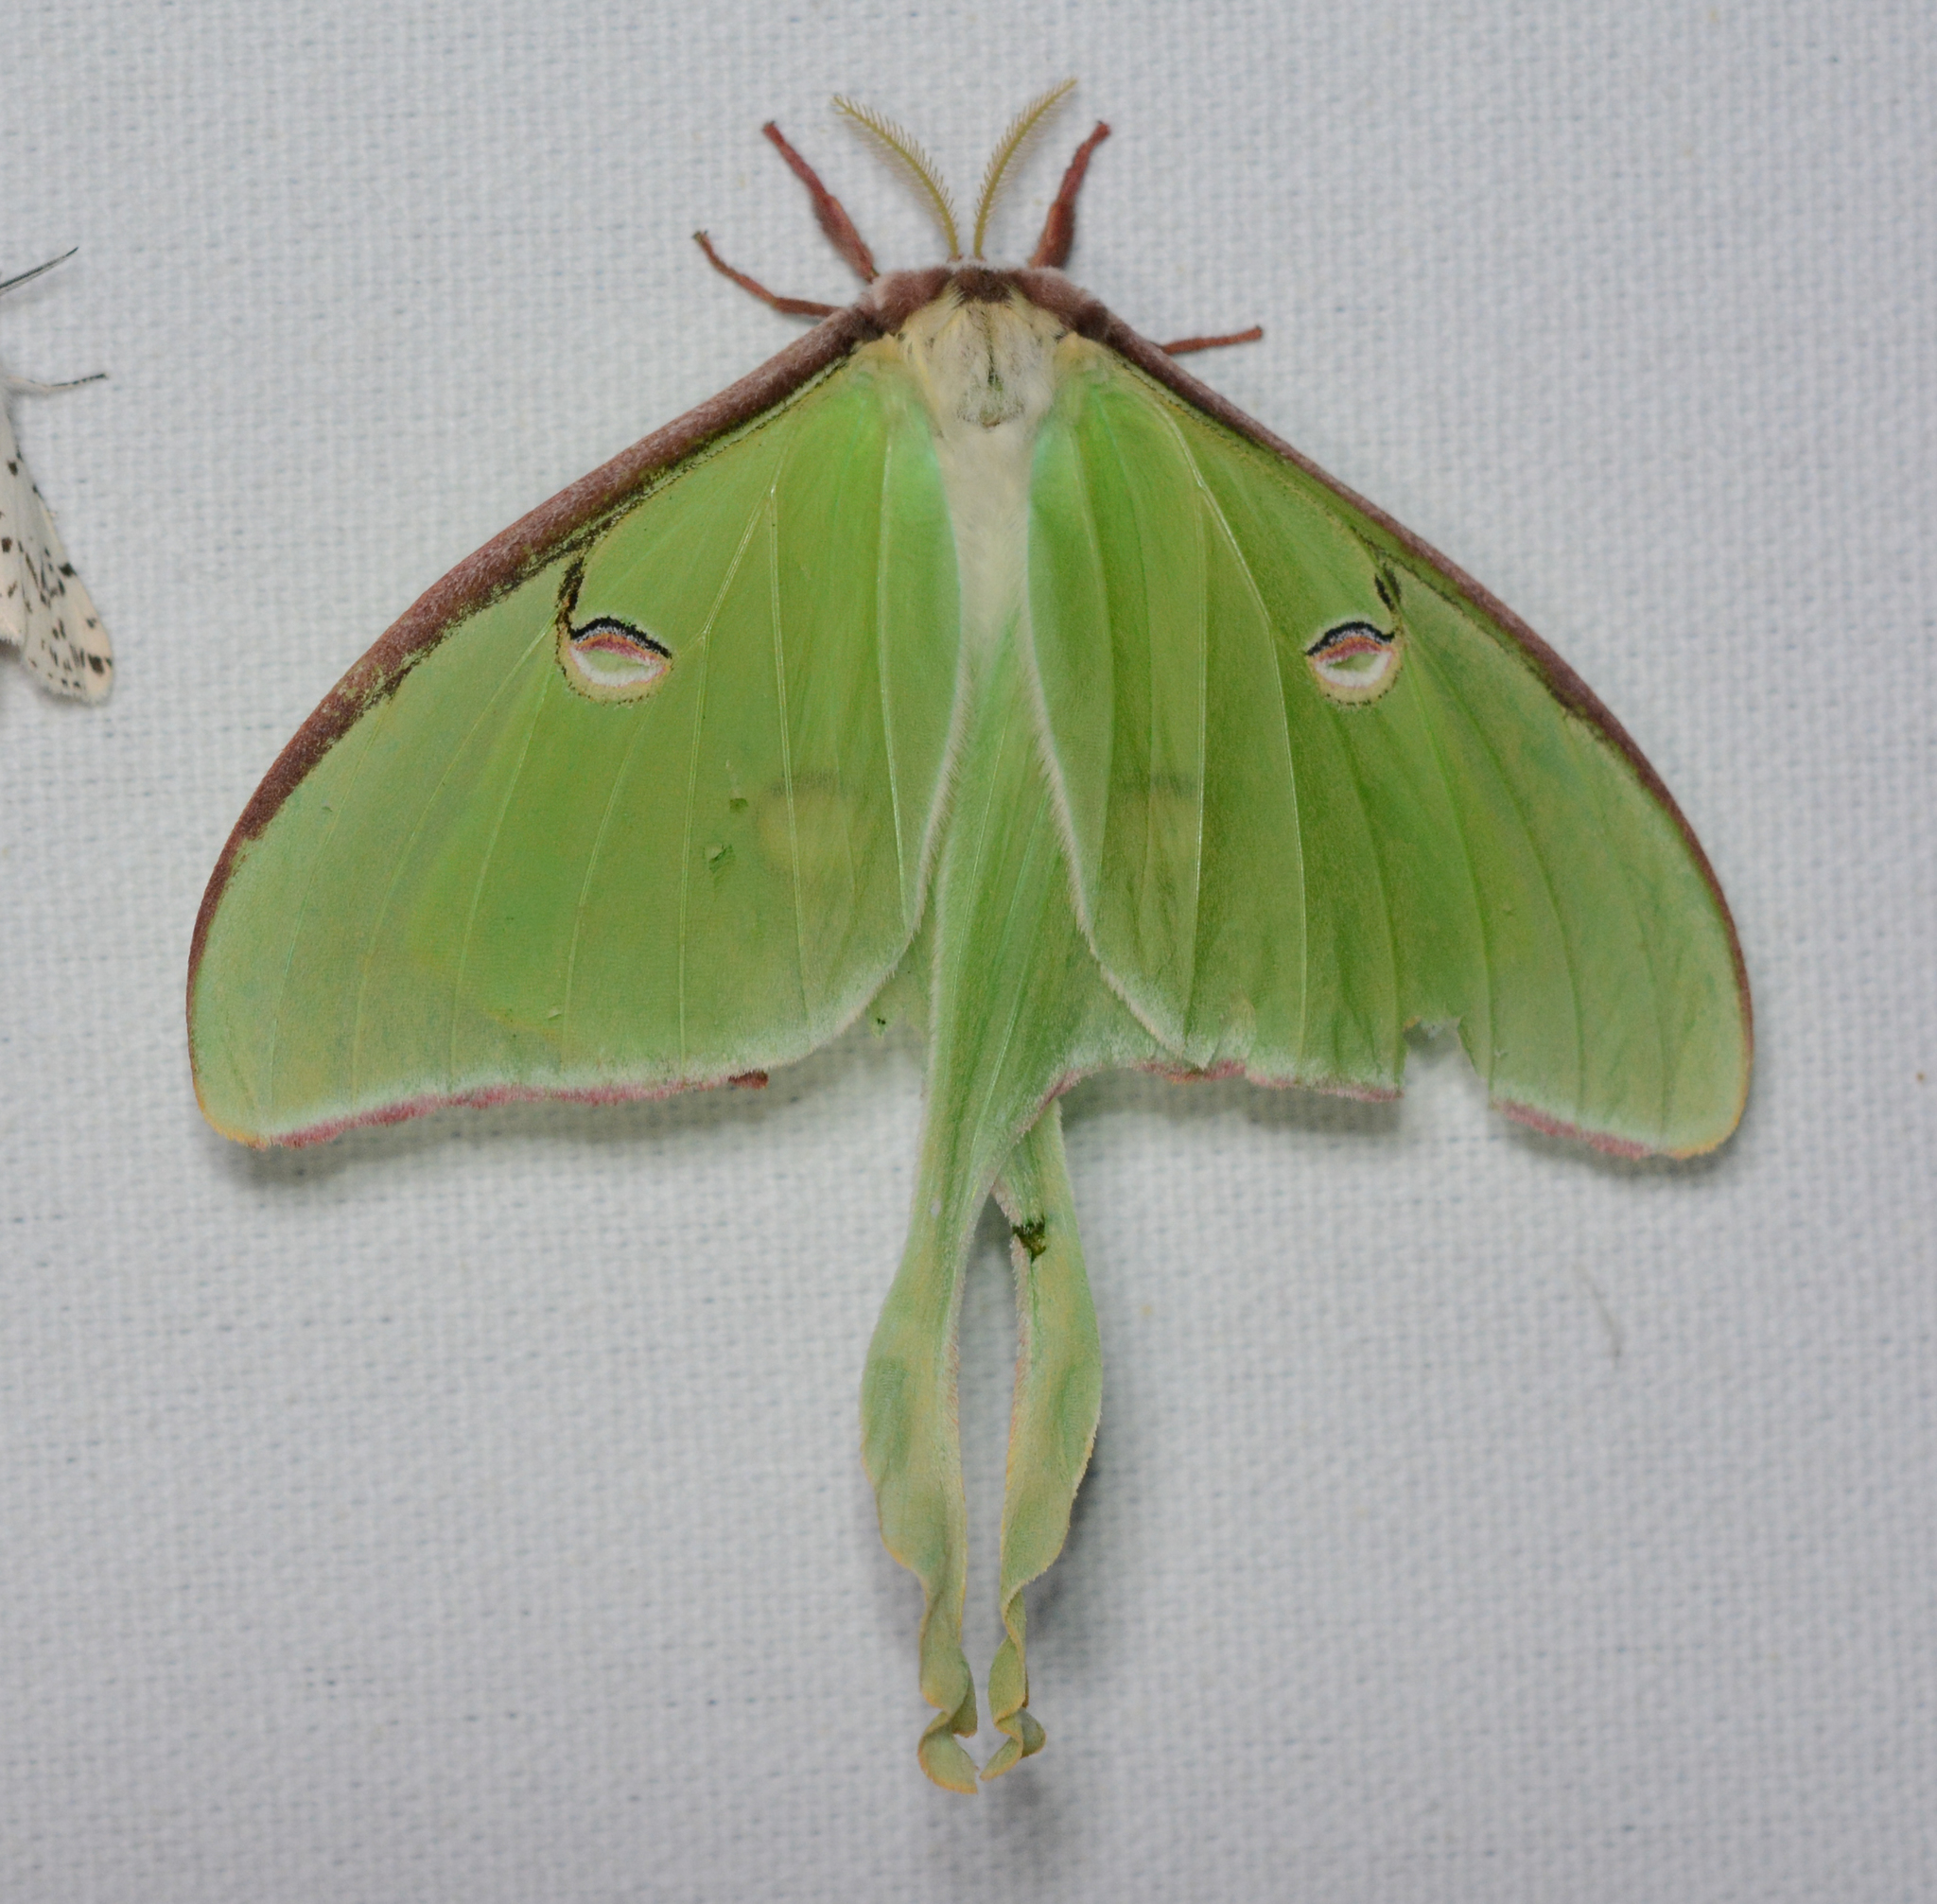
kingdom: Animalia
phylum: Arthropoda
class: Insecta
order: Lepidoptera
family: Saturniidae
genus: Actias
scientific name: Actias luna
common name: Luna moth
